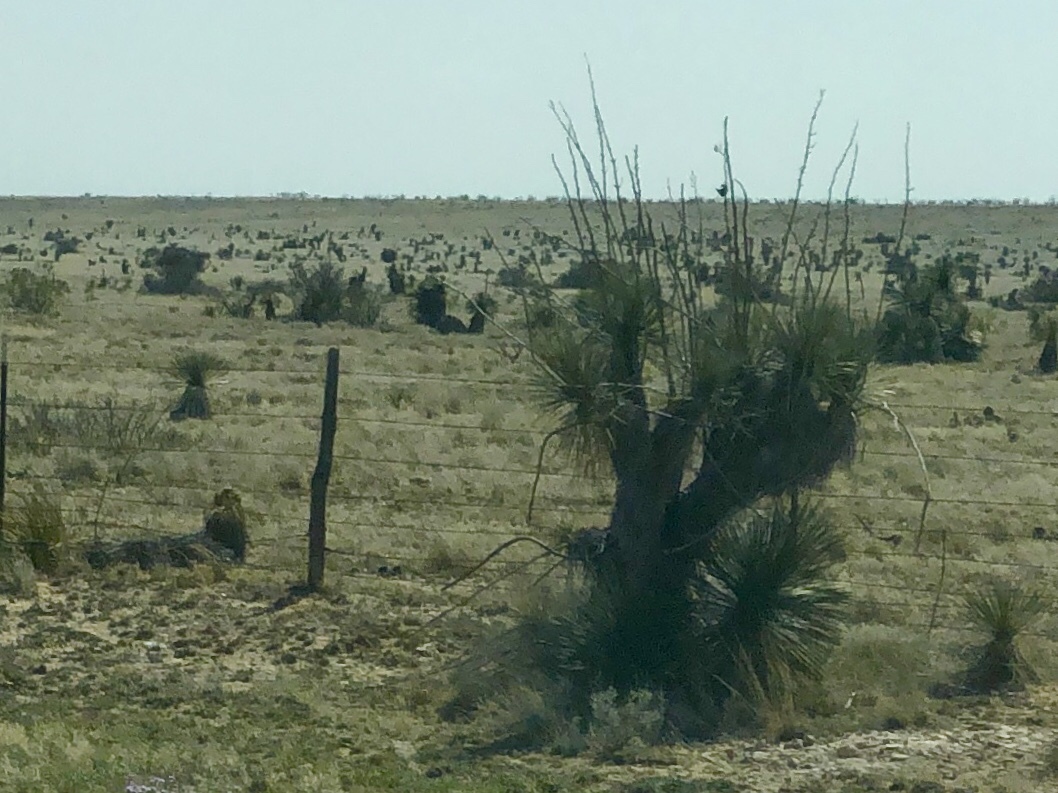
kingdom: Plantae
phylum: Tracheophyta
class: Liliopsida
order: Asparagales
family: Asparagaceae
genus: Yucca
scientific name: Yucca elata
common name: Palmella
